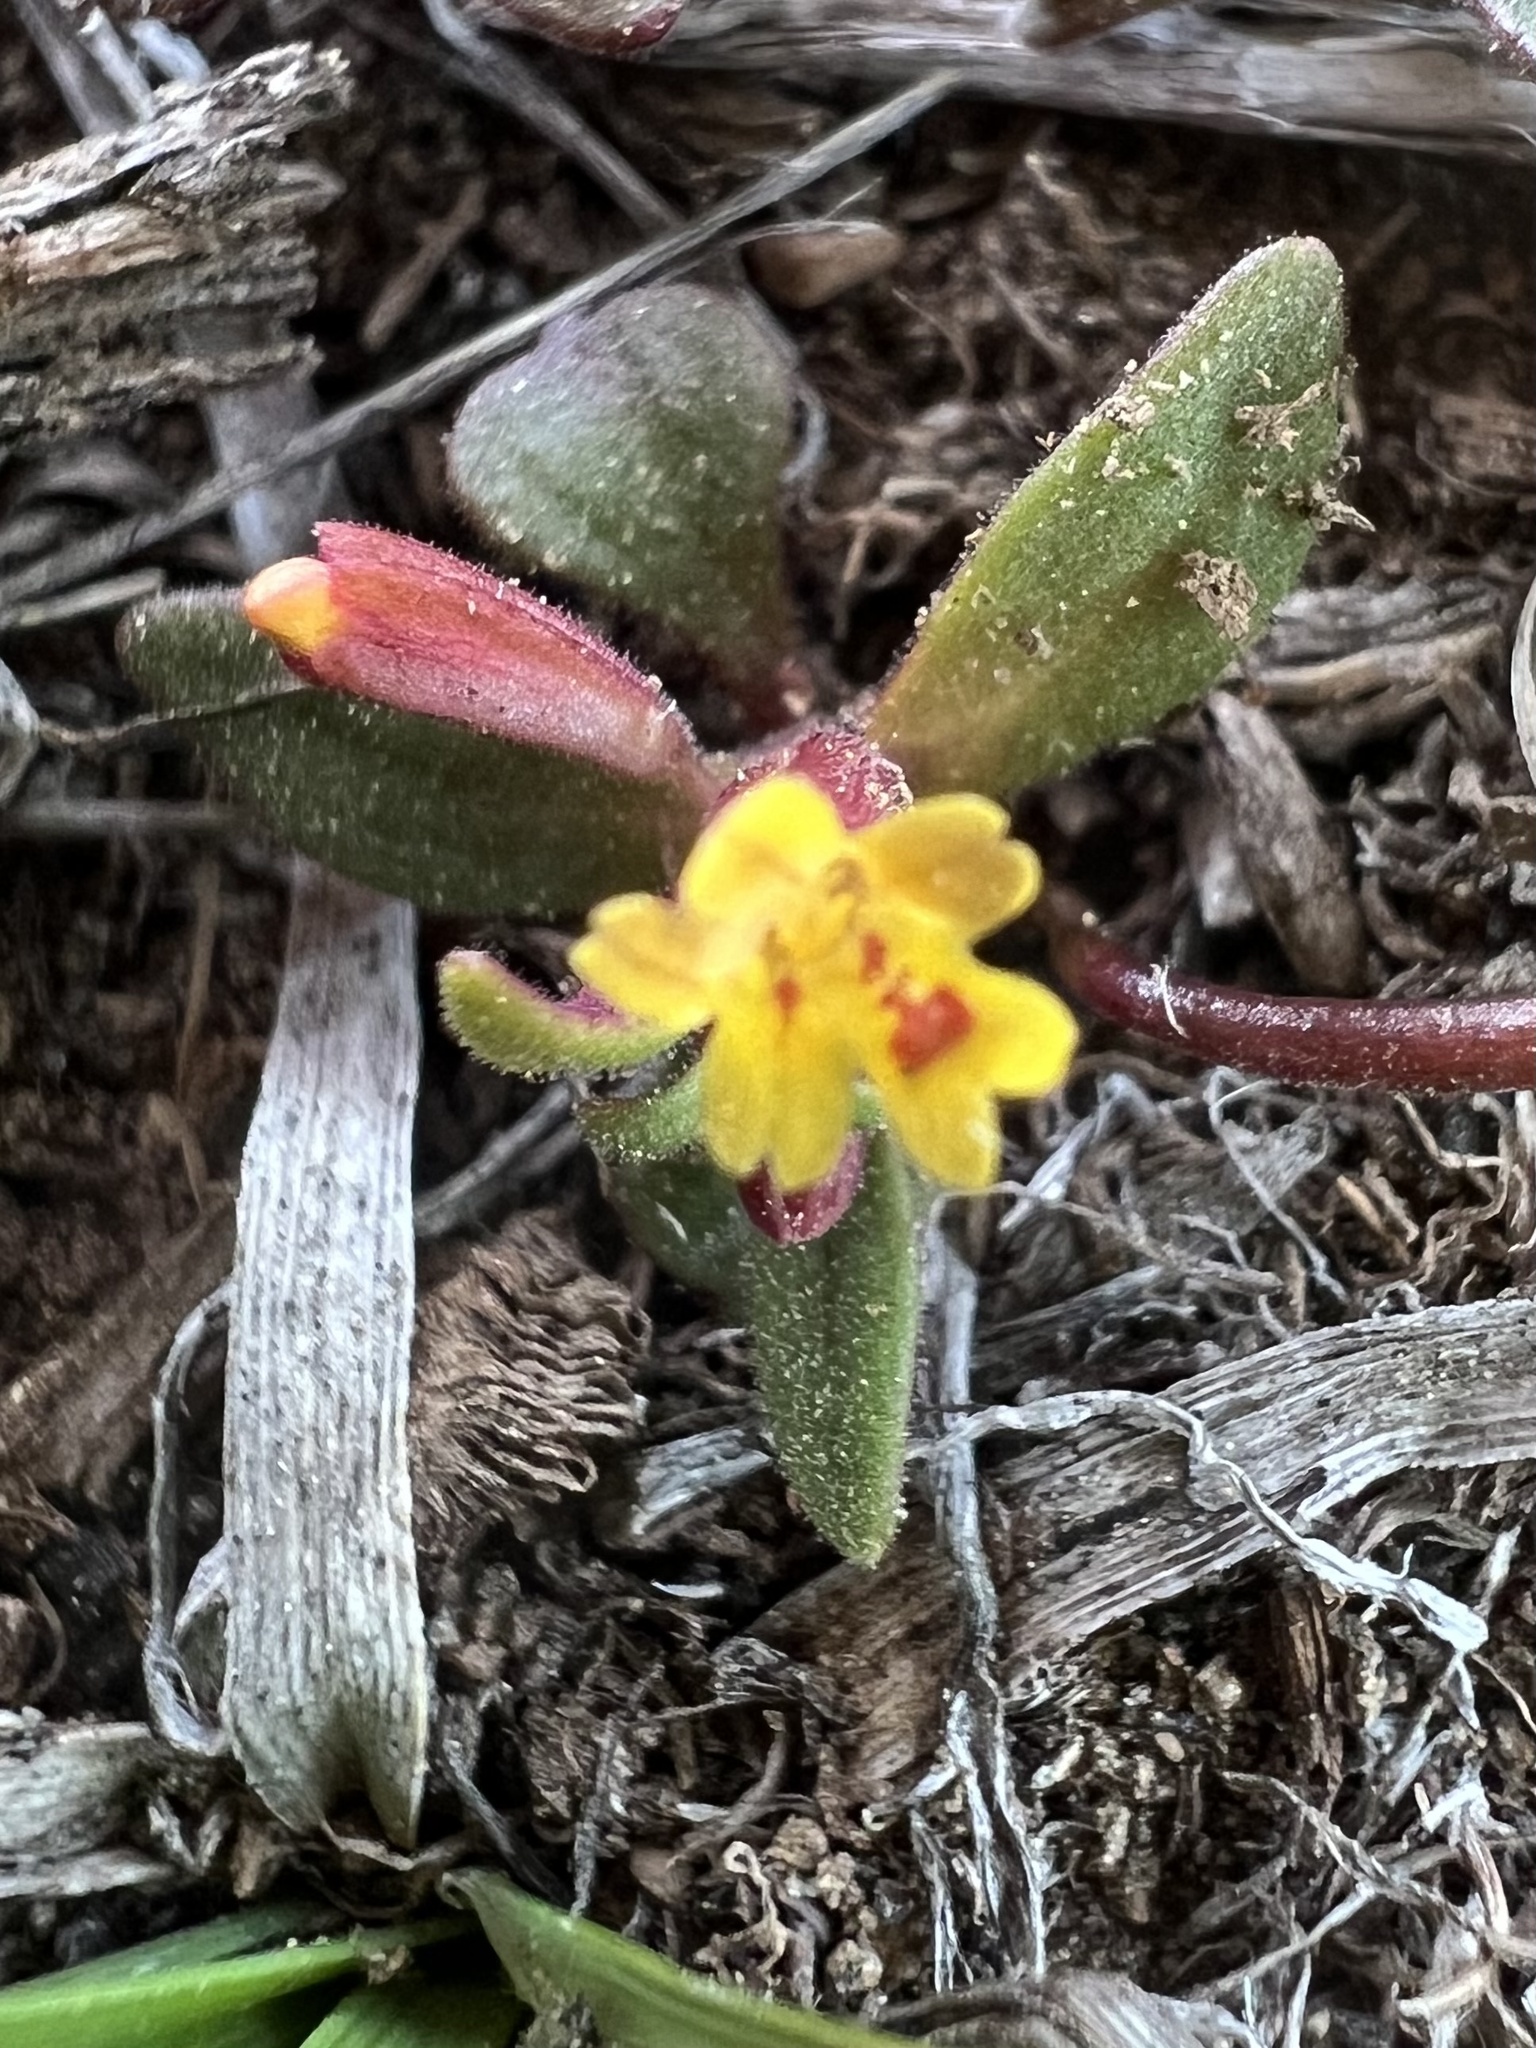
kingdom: Plantae
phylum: Tracheophyta
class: Magnoliopsida
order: Lamiales
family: Phrymaceae
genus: Erythranthe
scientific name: Erythranthe suksdorfii
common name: Suksdorf's monkeyflower
